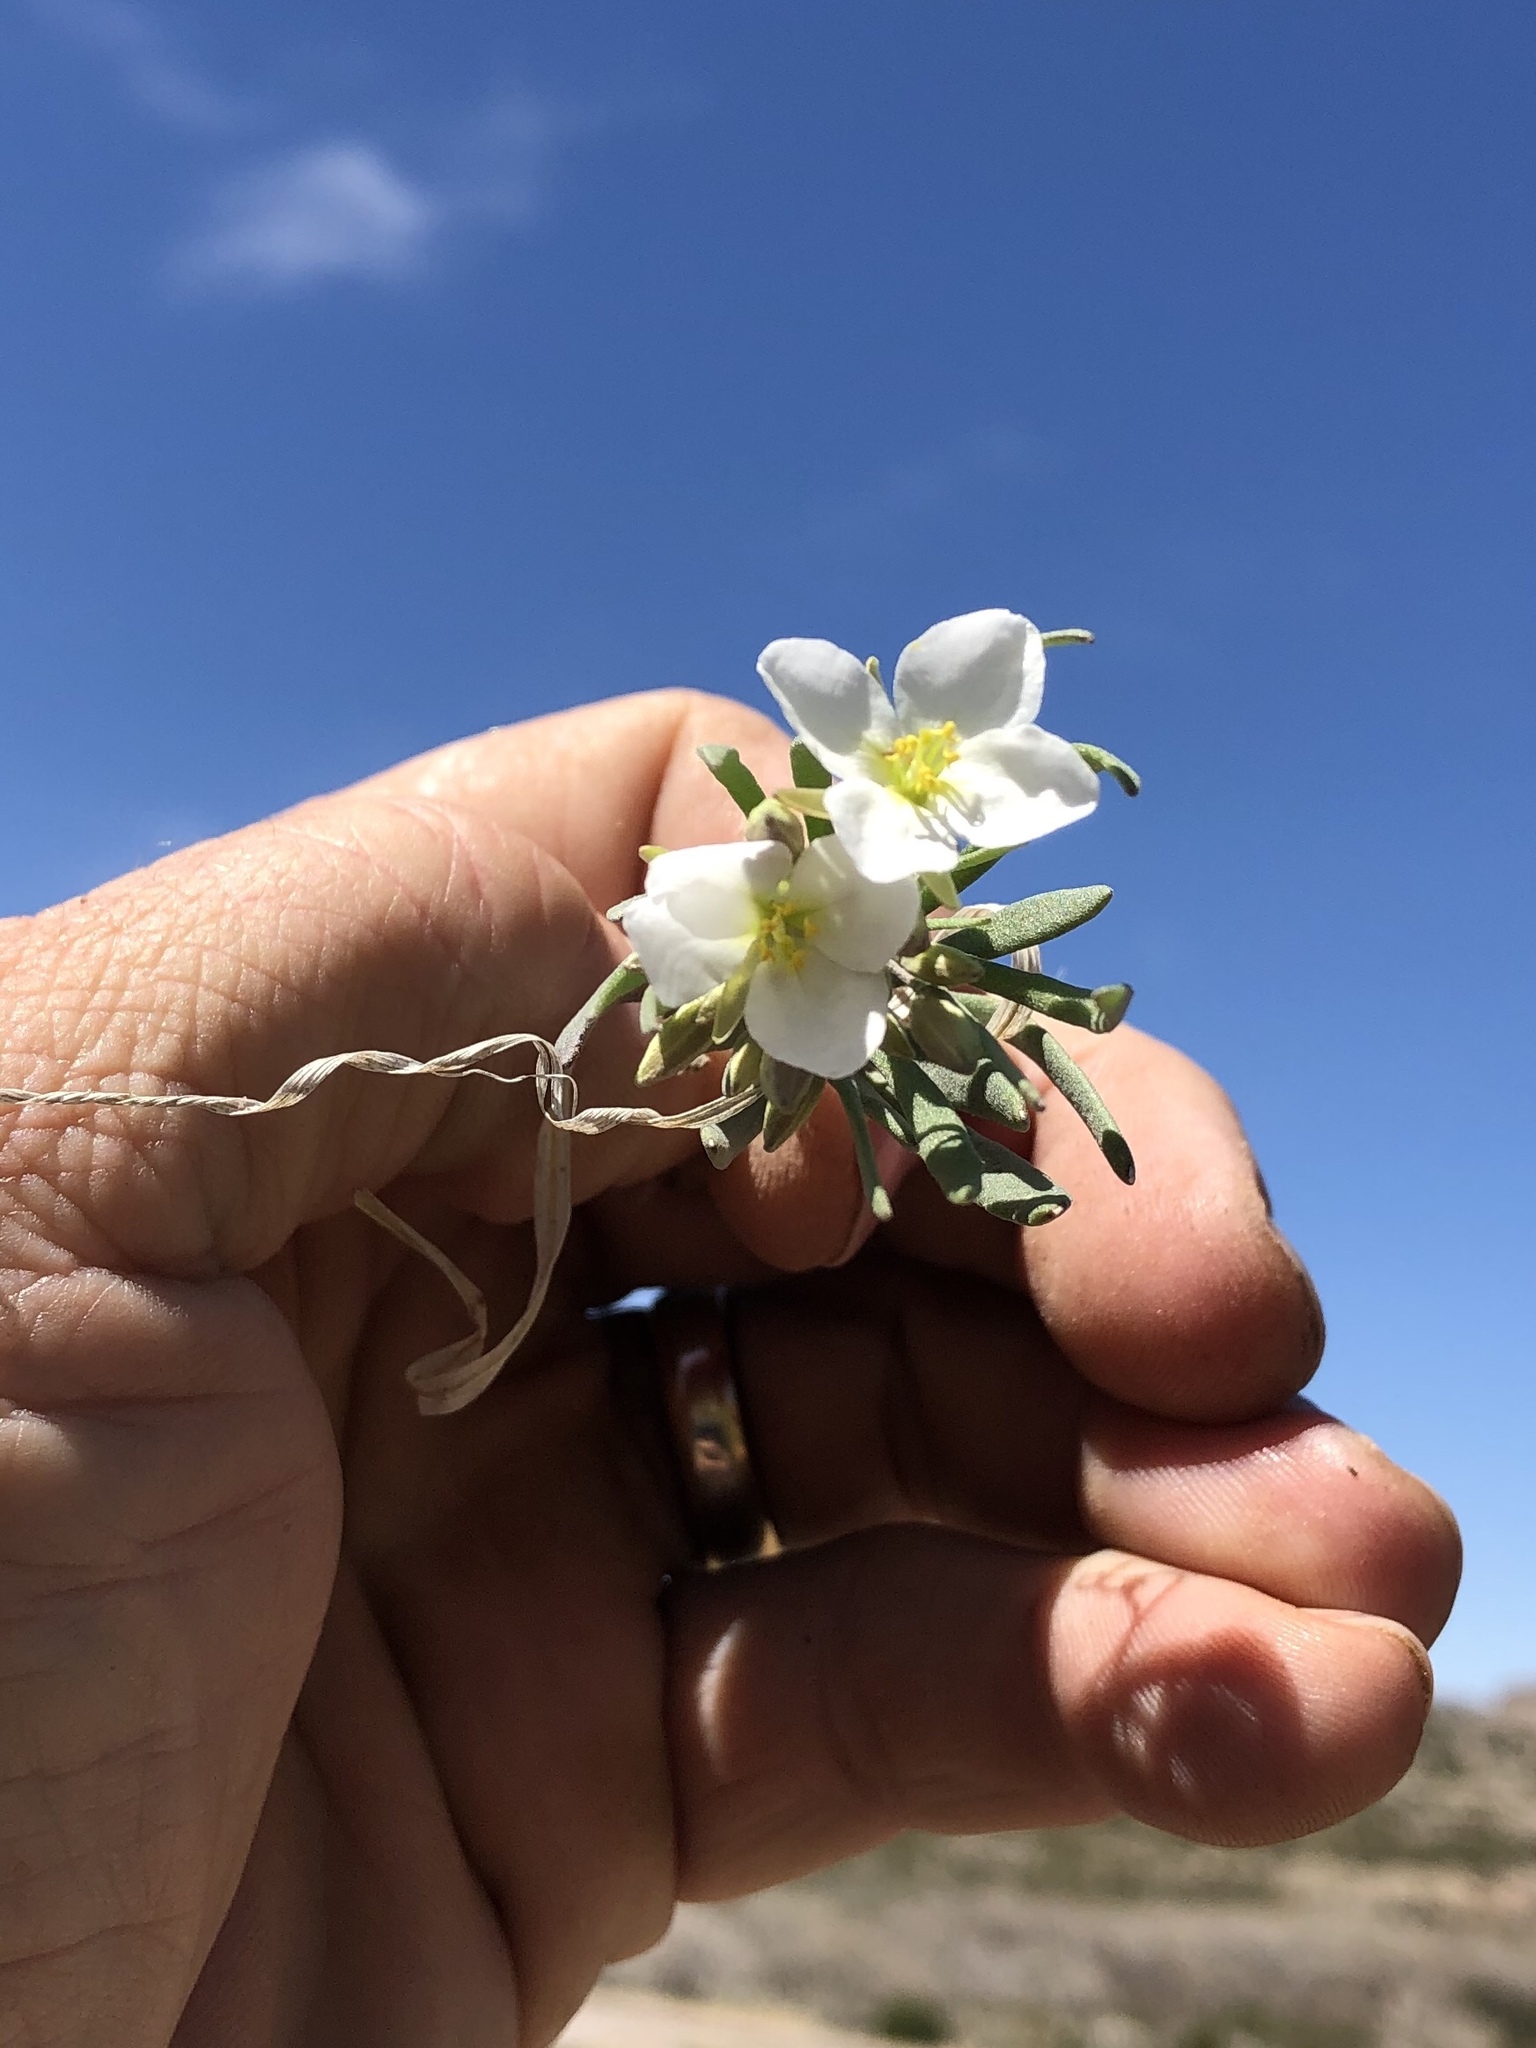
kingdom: Plantae
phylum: Tracheophyta
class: Magnoliopsida
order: Brassicales
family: Brassicaceae
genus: Nerisyrenia
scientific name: Nerisyrenia linearifolia
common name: White sands fan mustard
